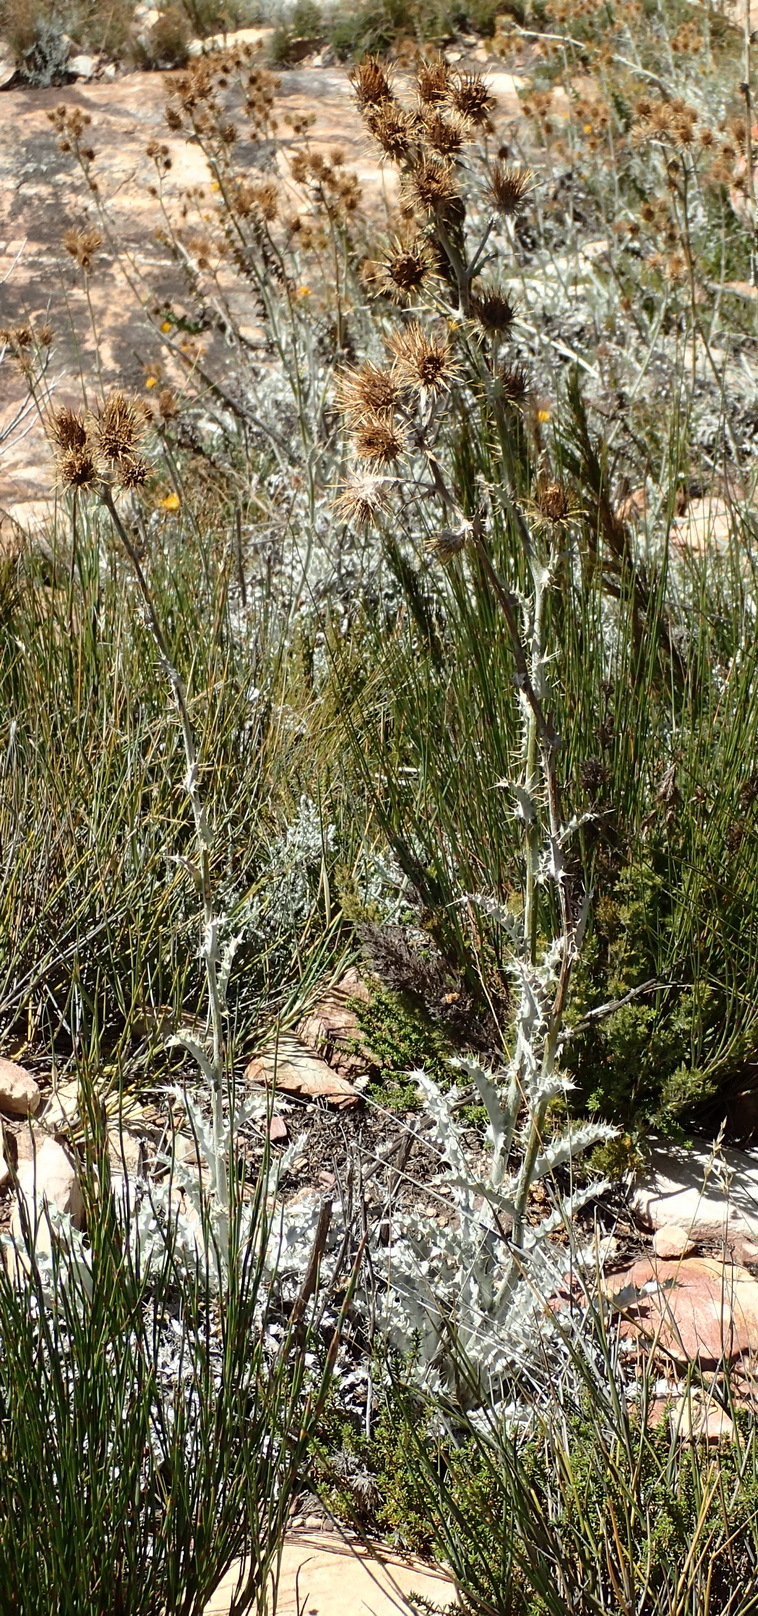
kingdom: Plantae
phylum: Tracheophyta
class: Magnoliopsida
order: Asterales
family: Asteraceae
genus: Berkheya
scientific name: Berkheya francisci
